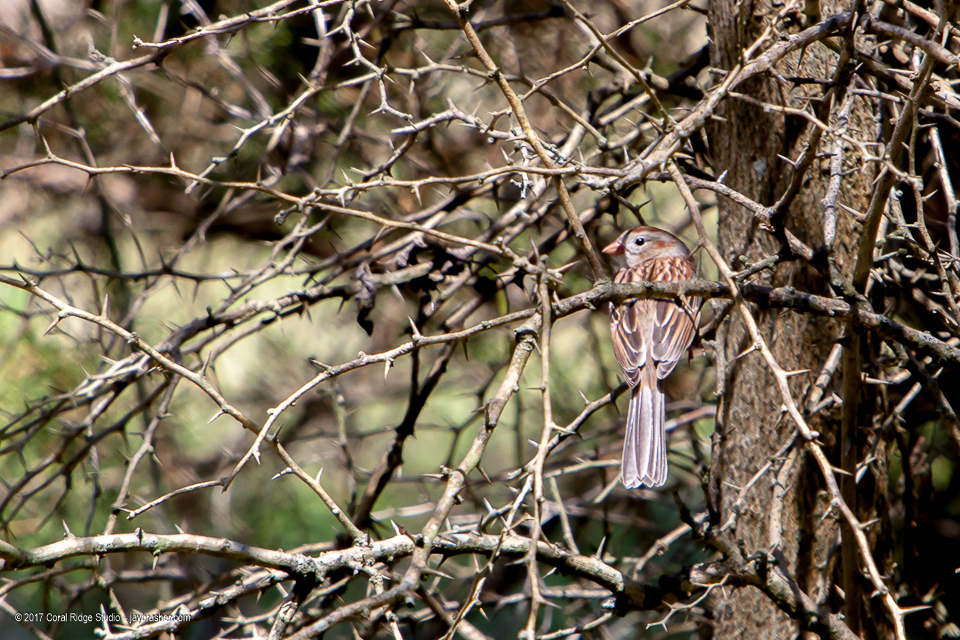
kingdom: Animalia
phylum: Chordata
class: Aves
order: Passeriformes
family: Passerellidae
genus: Spizella
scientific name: Spizella pusilla
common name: Field sparrow
